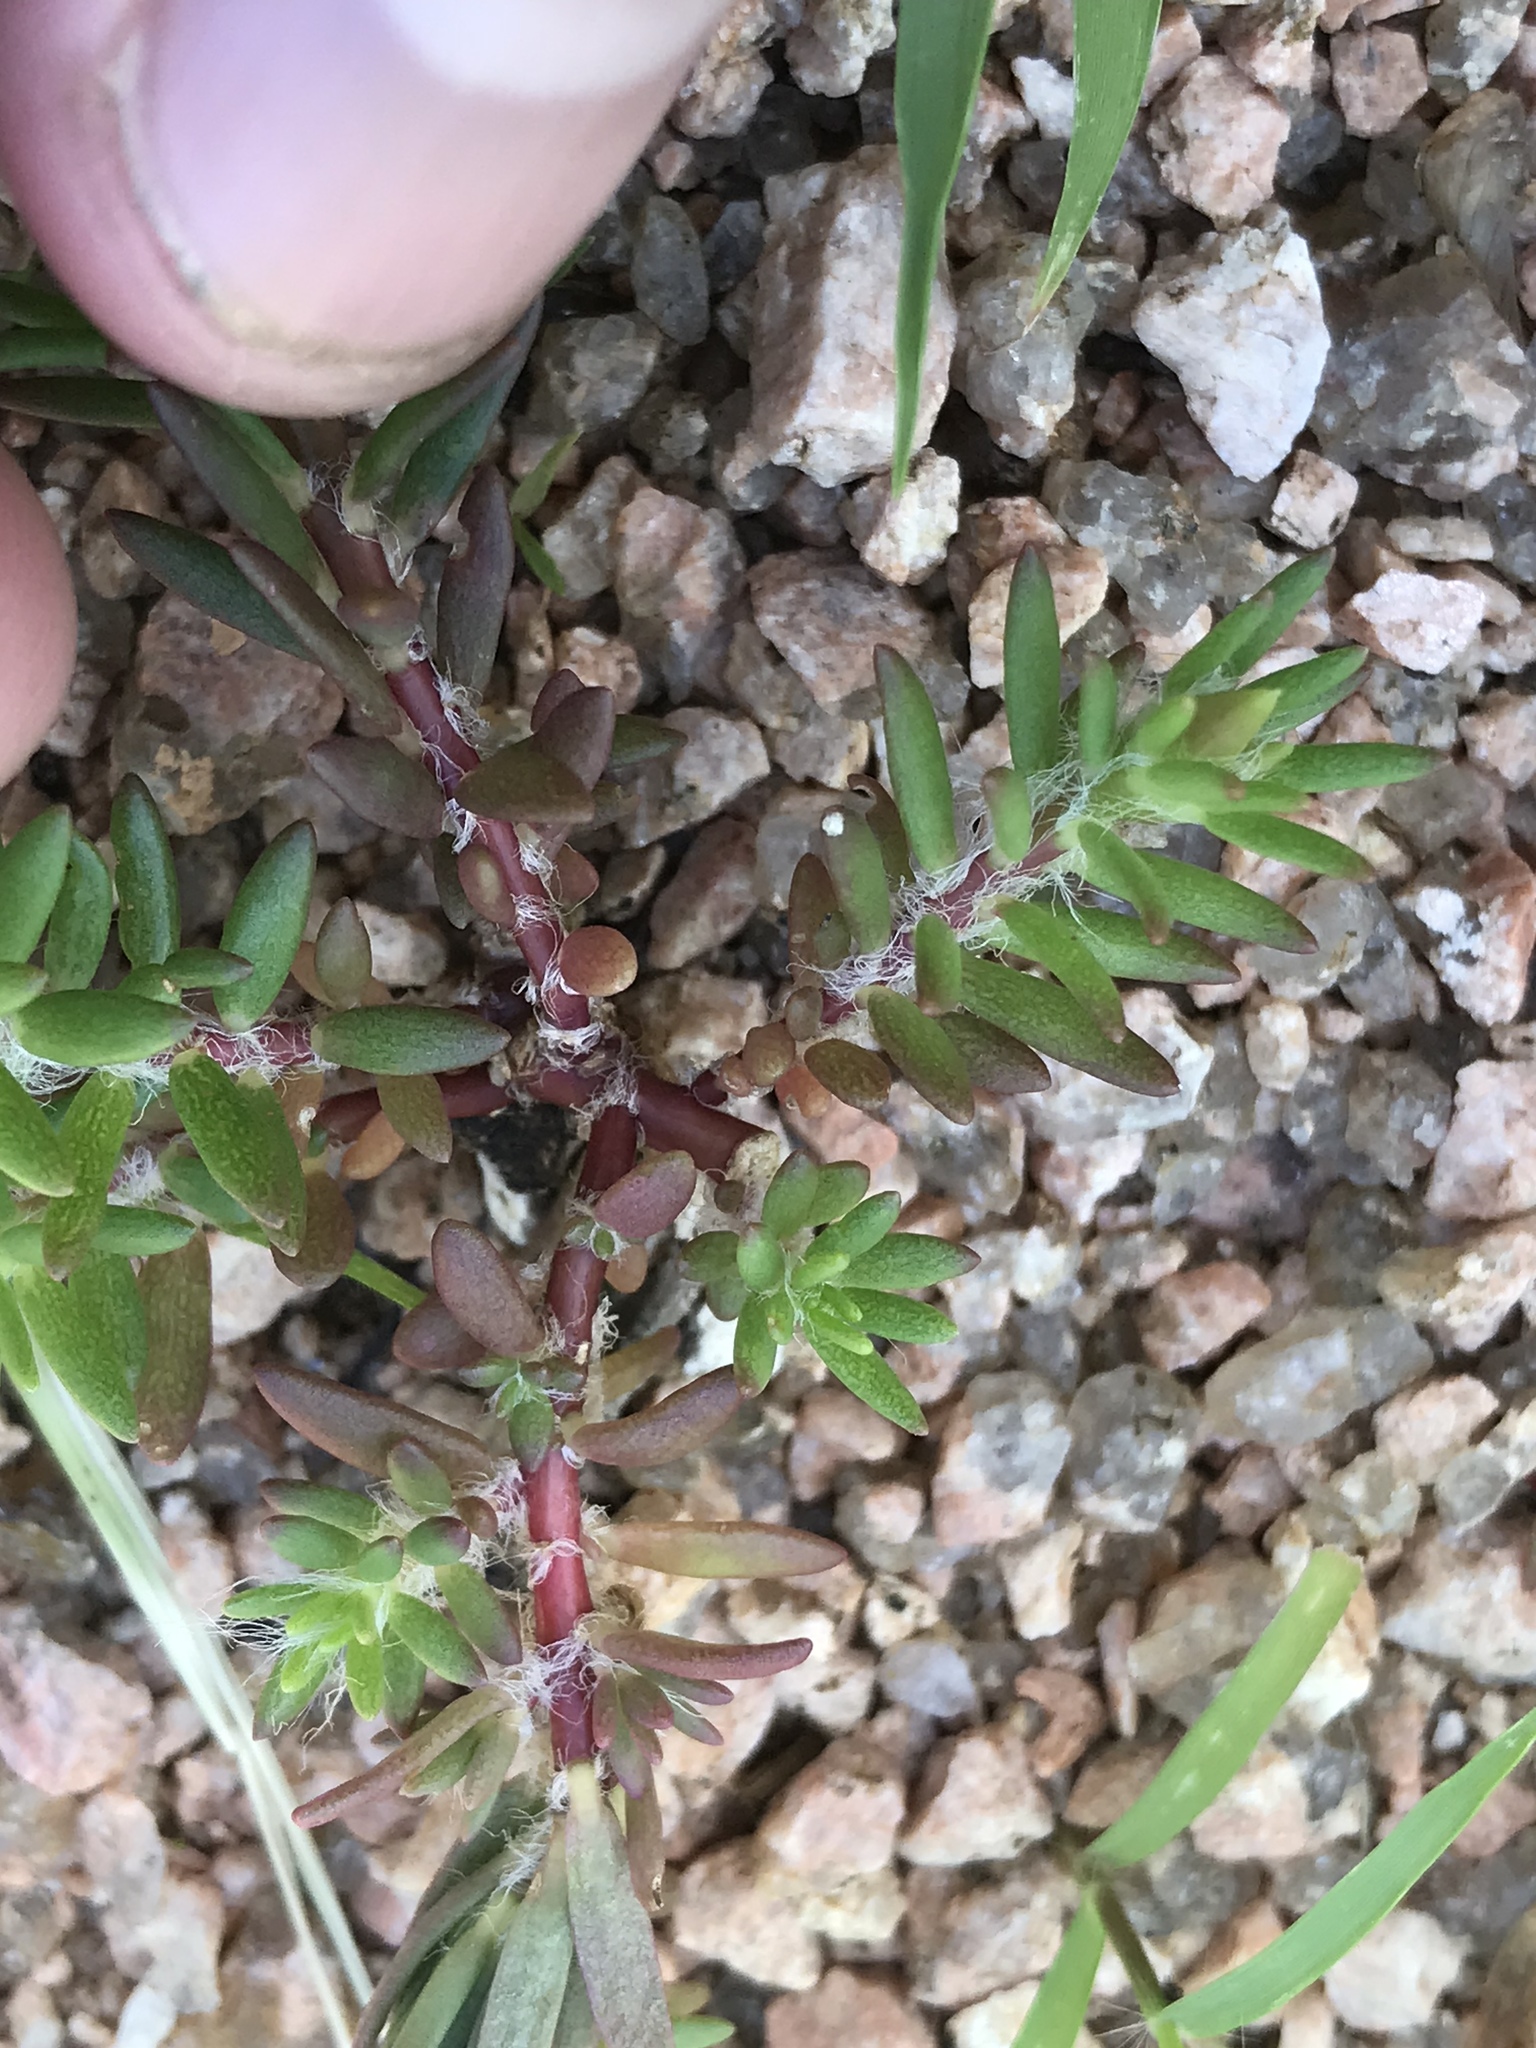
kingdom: Plantae
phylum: Tracheophyta
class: Magnoliopsida
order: Caryophyllales
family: Portulacaceae
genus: Portulaca
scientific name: Portulaca pilosa
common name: Kiss me quick
